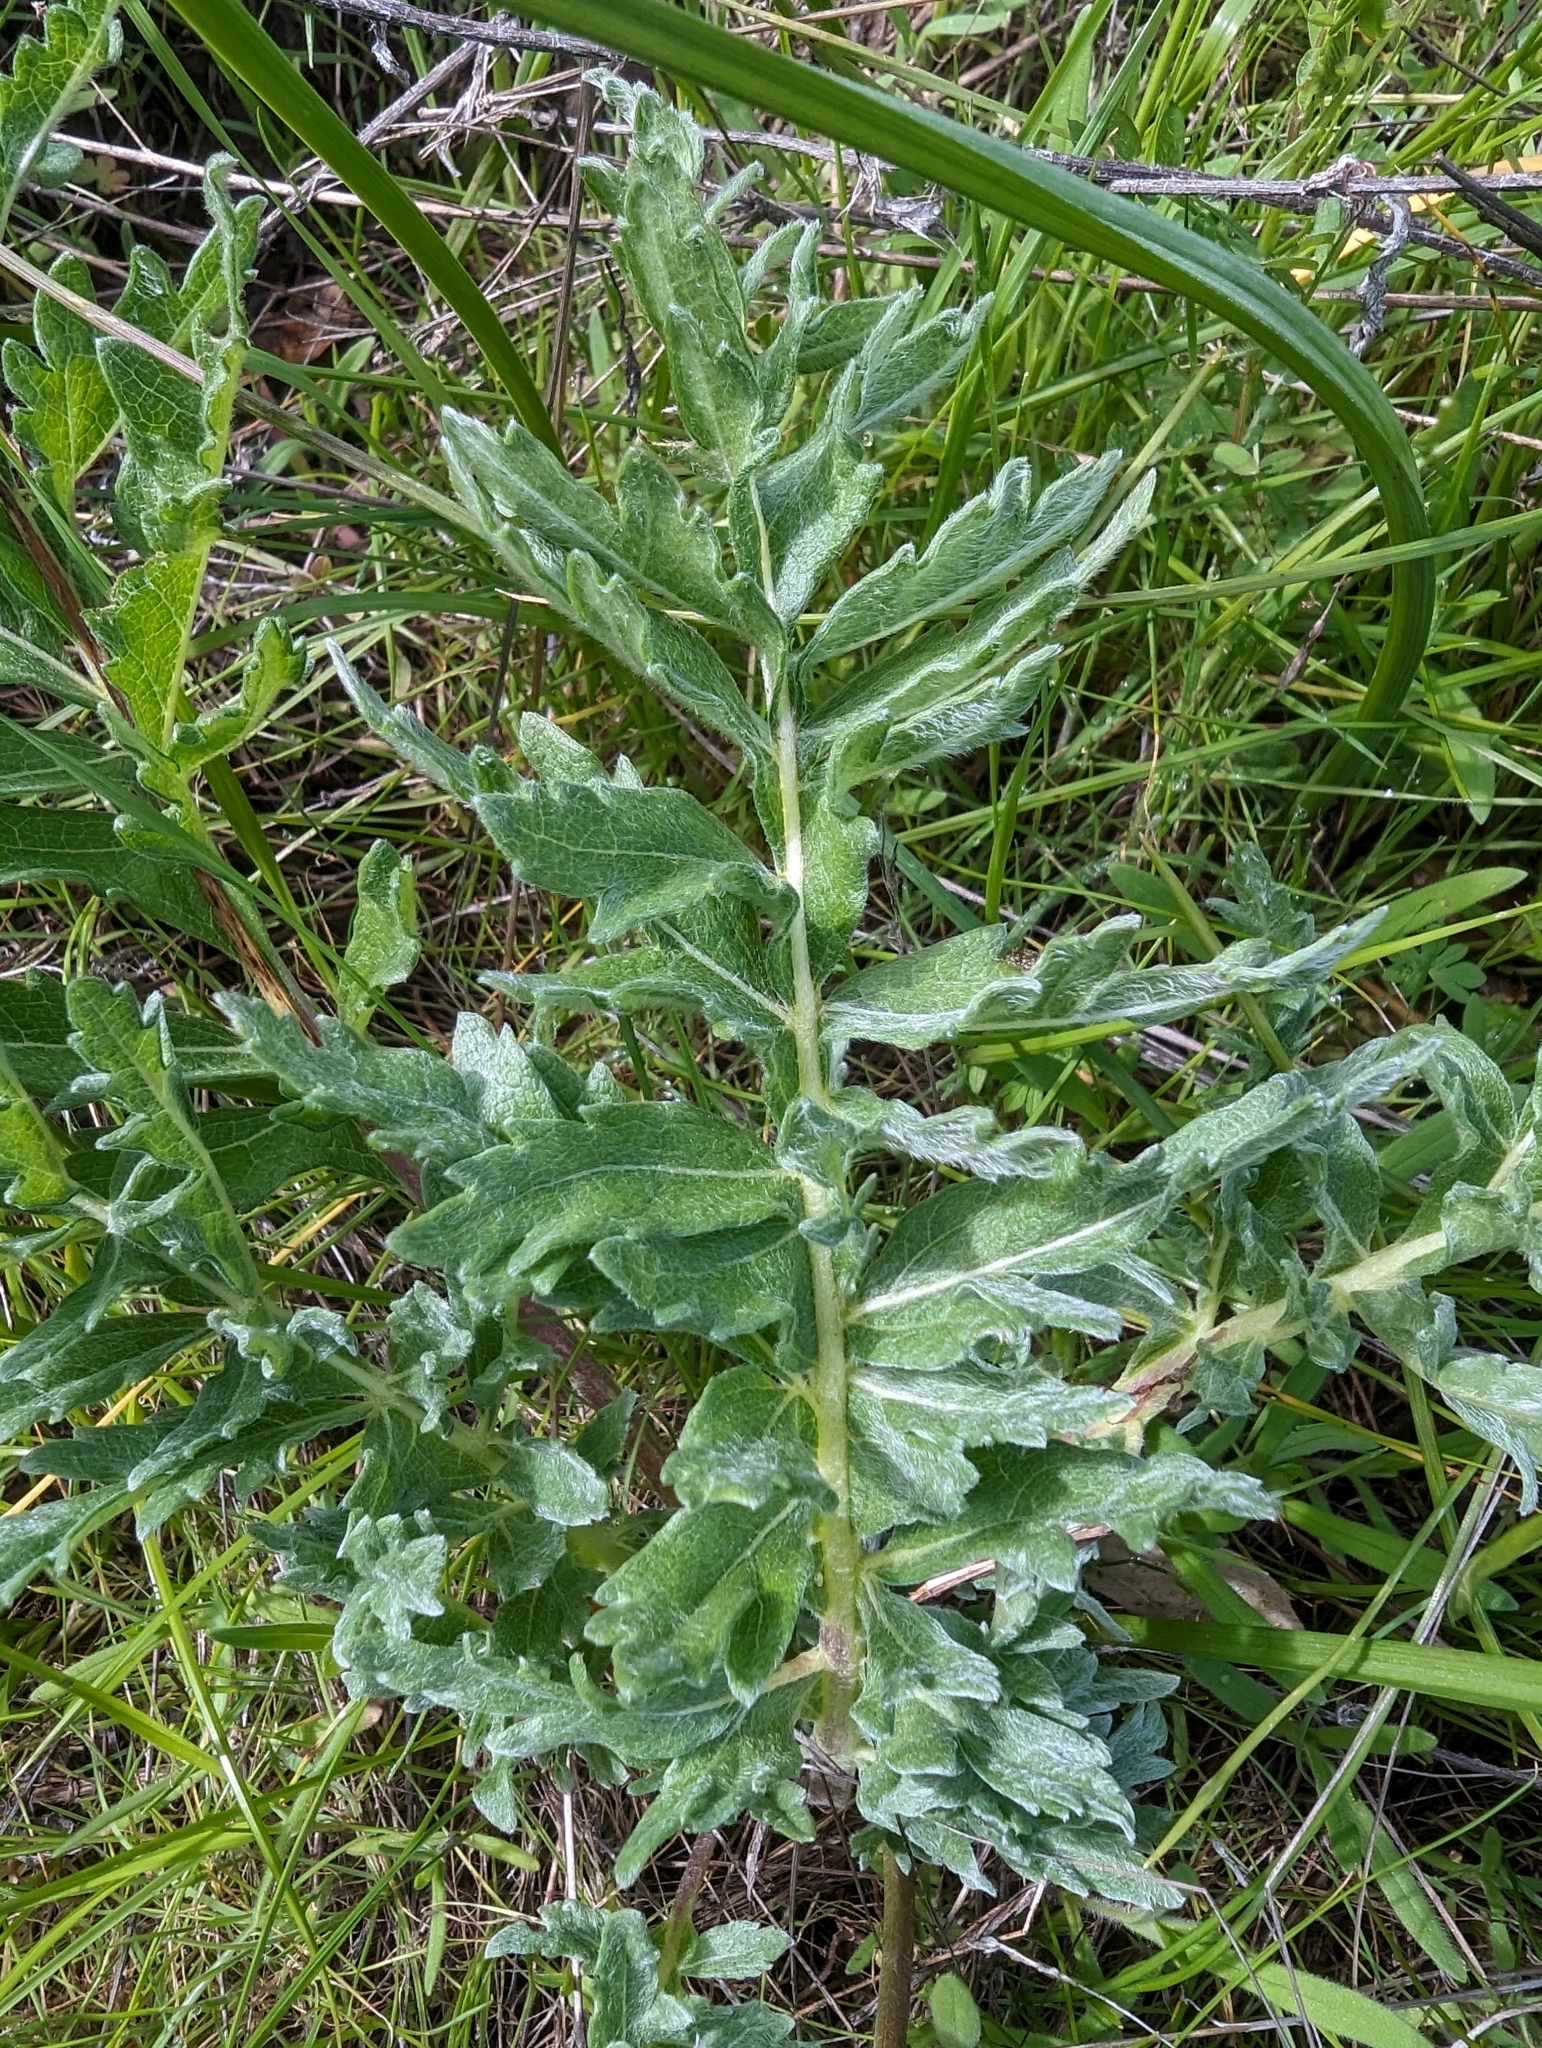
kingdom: Plantae
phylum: Tracheophyta
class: Magnoliopsida
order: Asterales
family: Asteraceae
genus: Balsamorhiza
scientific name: Balsamorhiza macrolepis
